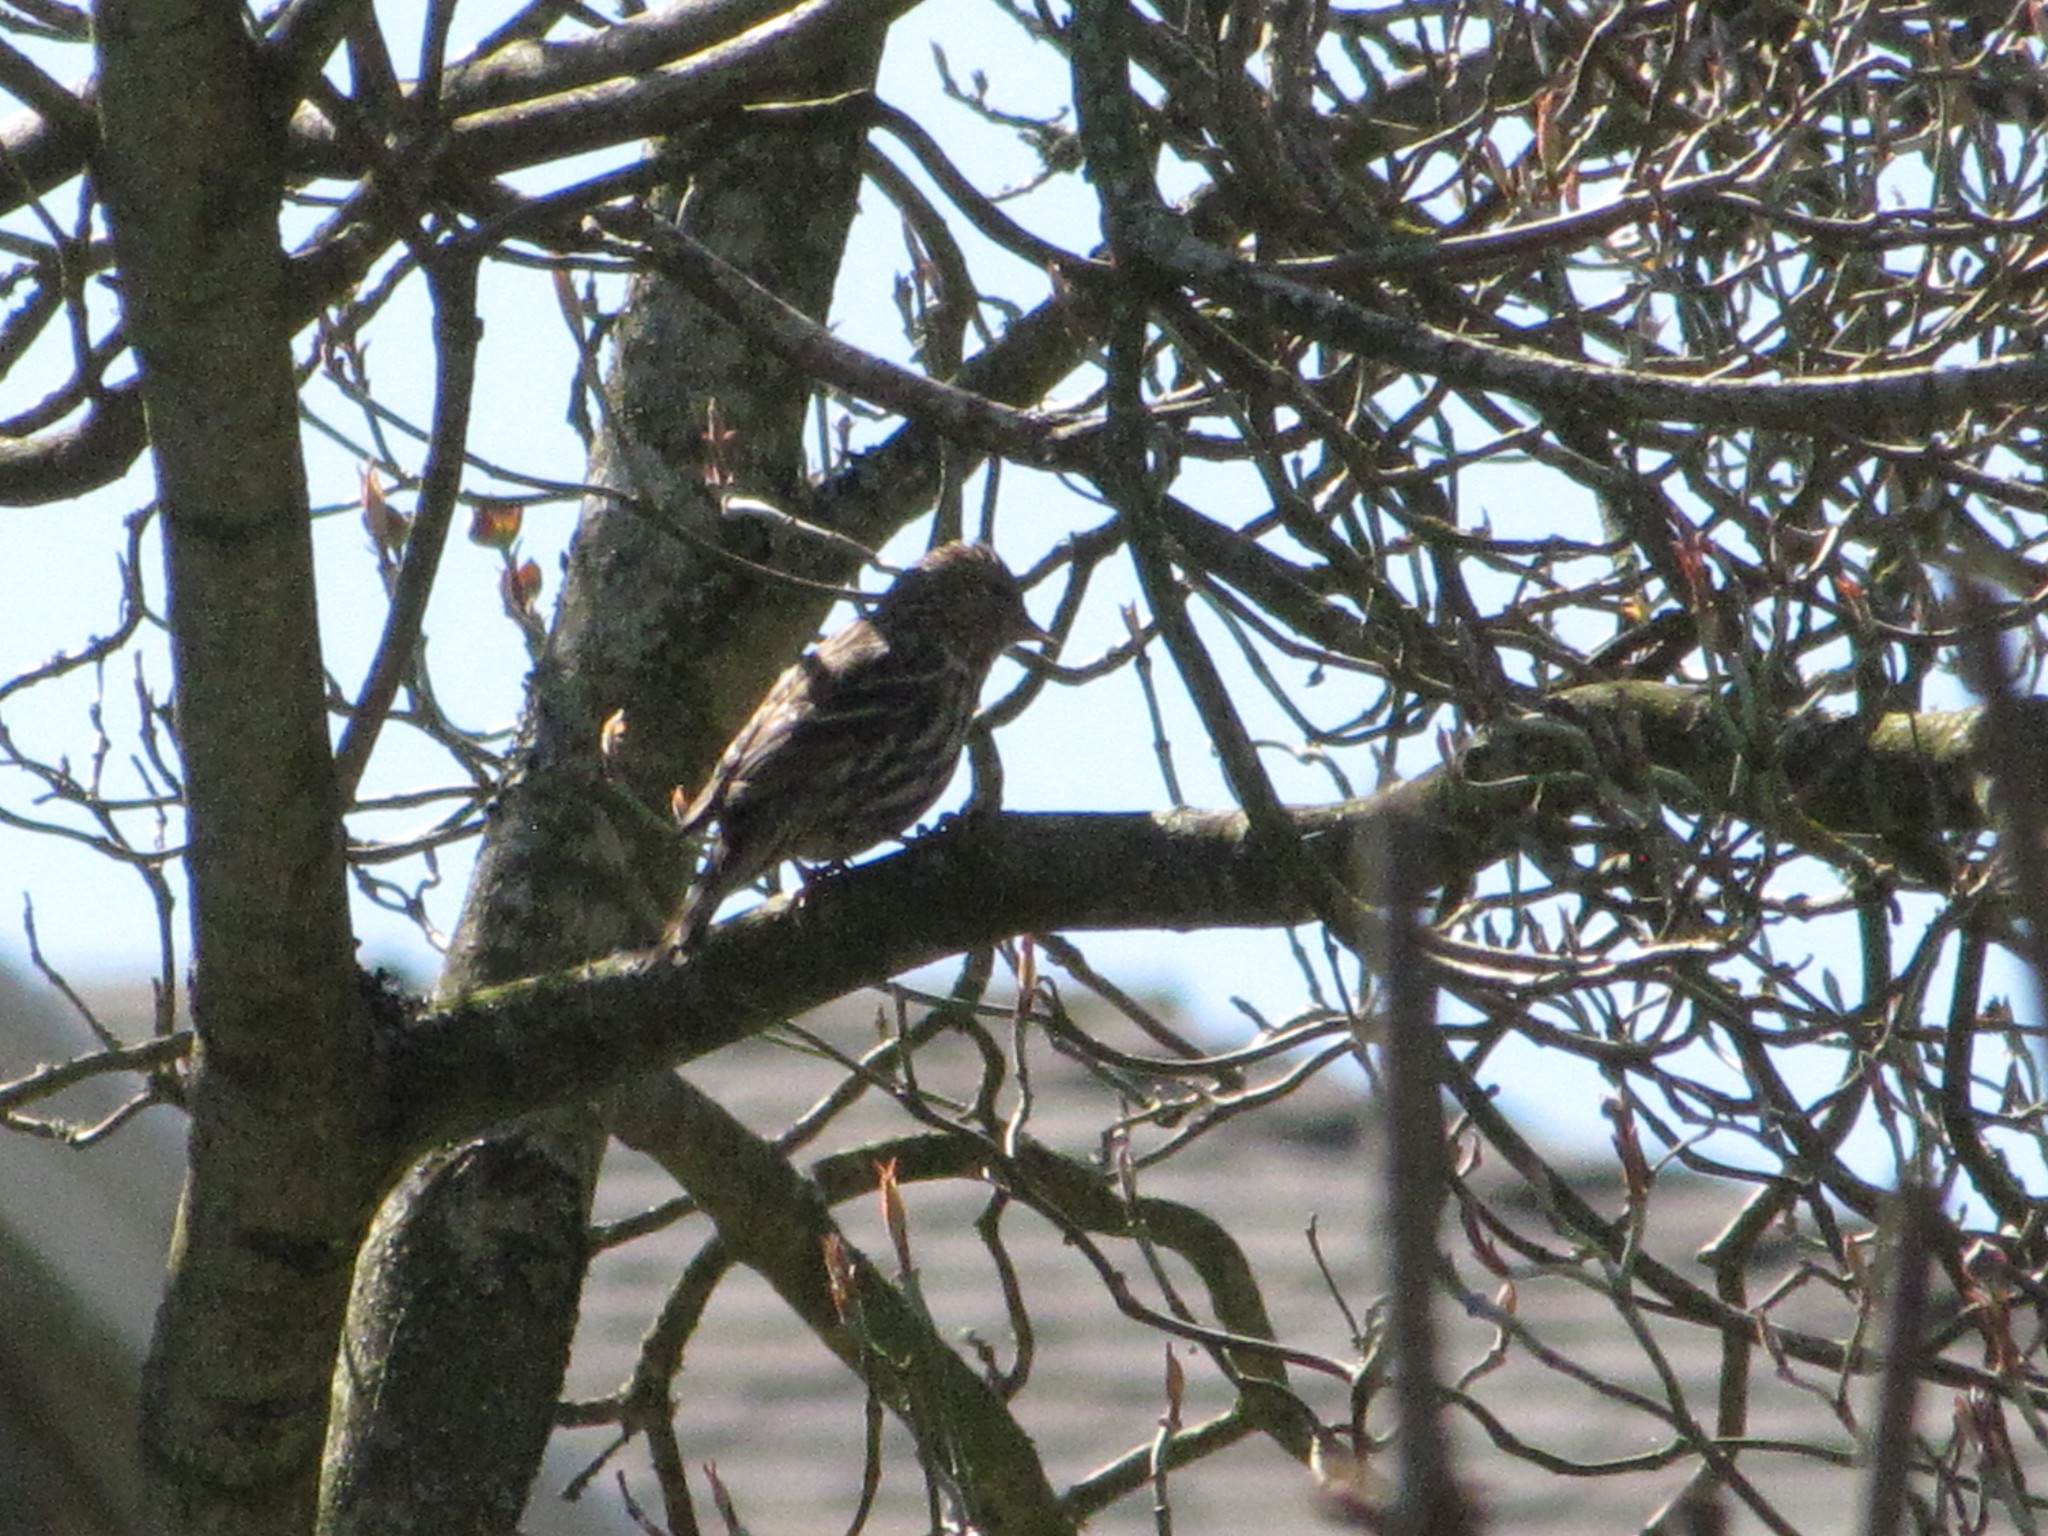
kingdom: Animalia
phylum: Chordata
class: Aves
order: Passeriformes
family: Fringillidae
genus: Spinus
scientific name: Spinus pinus
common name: Pine siskin
